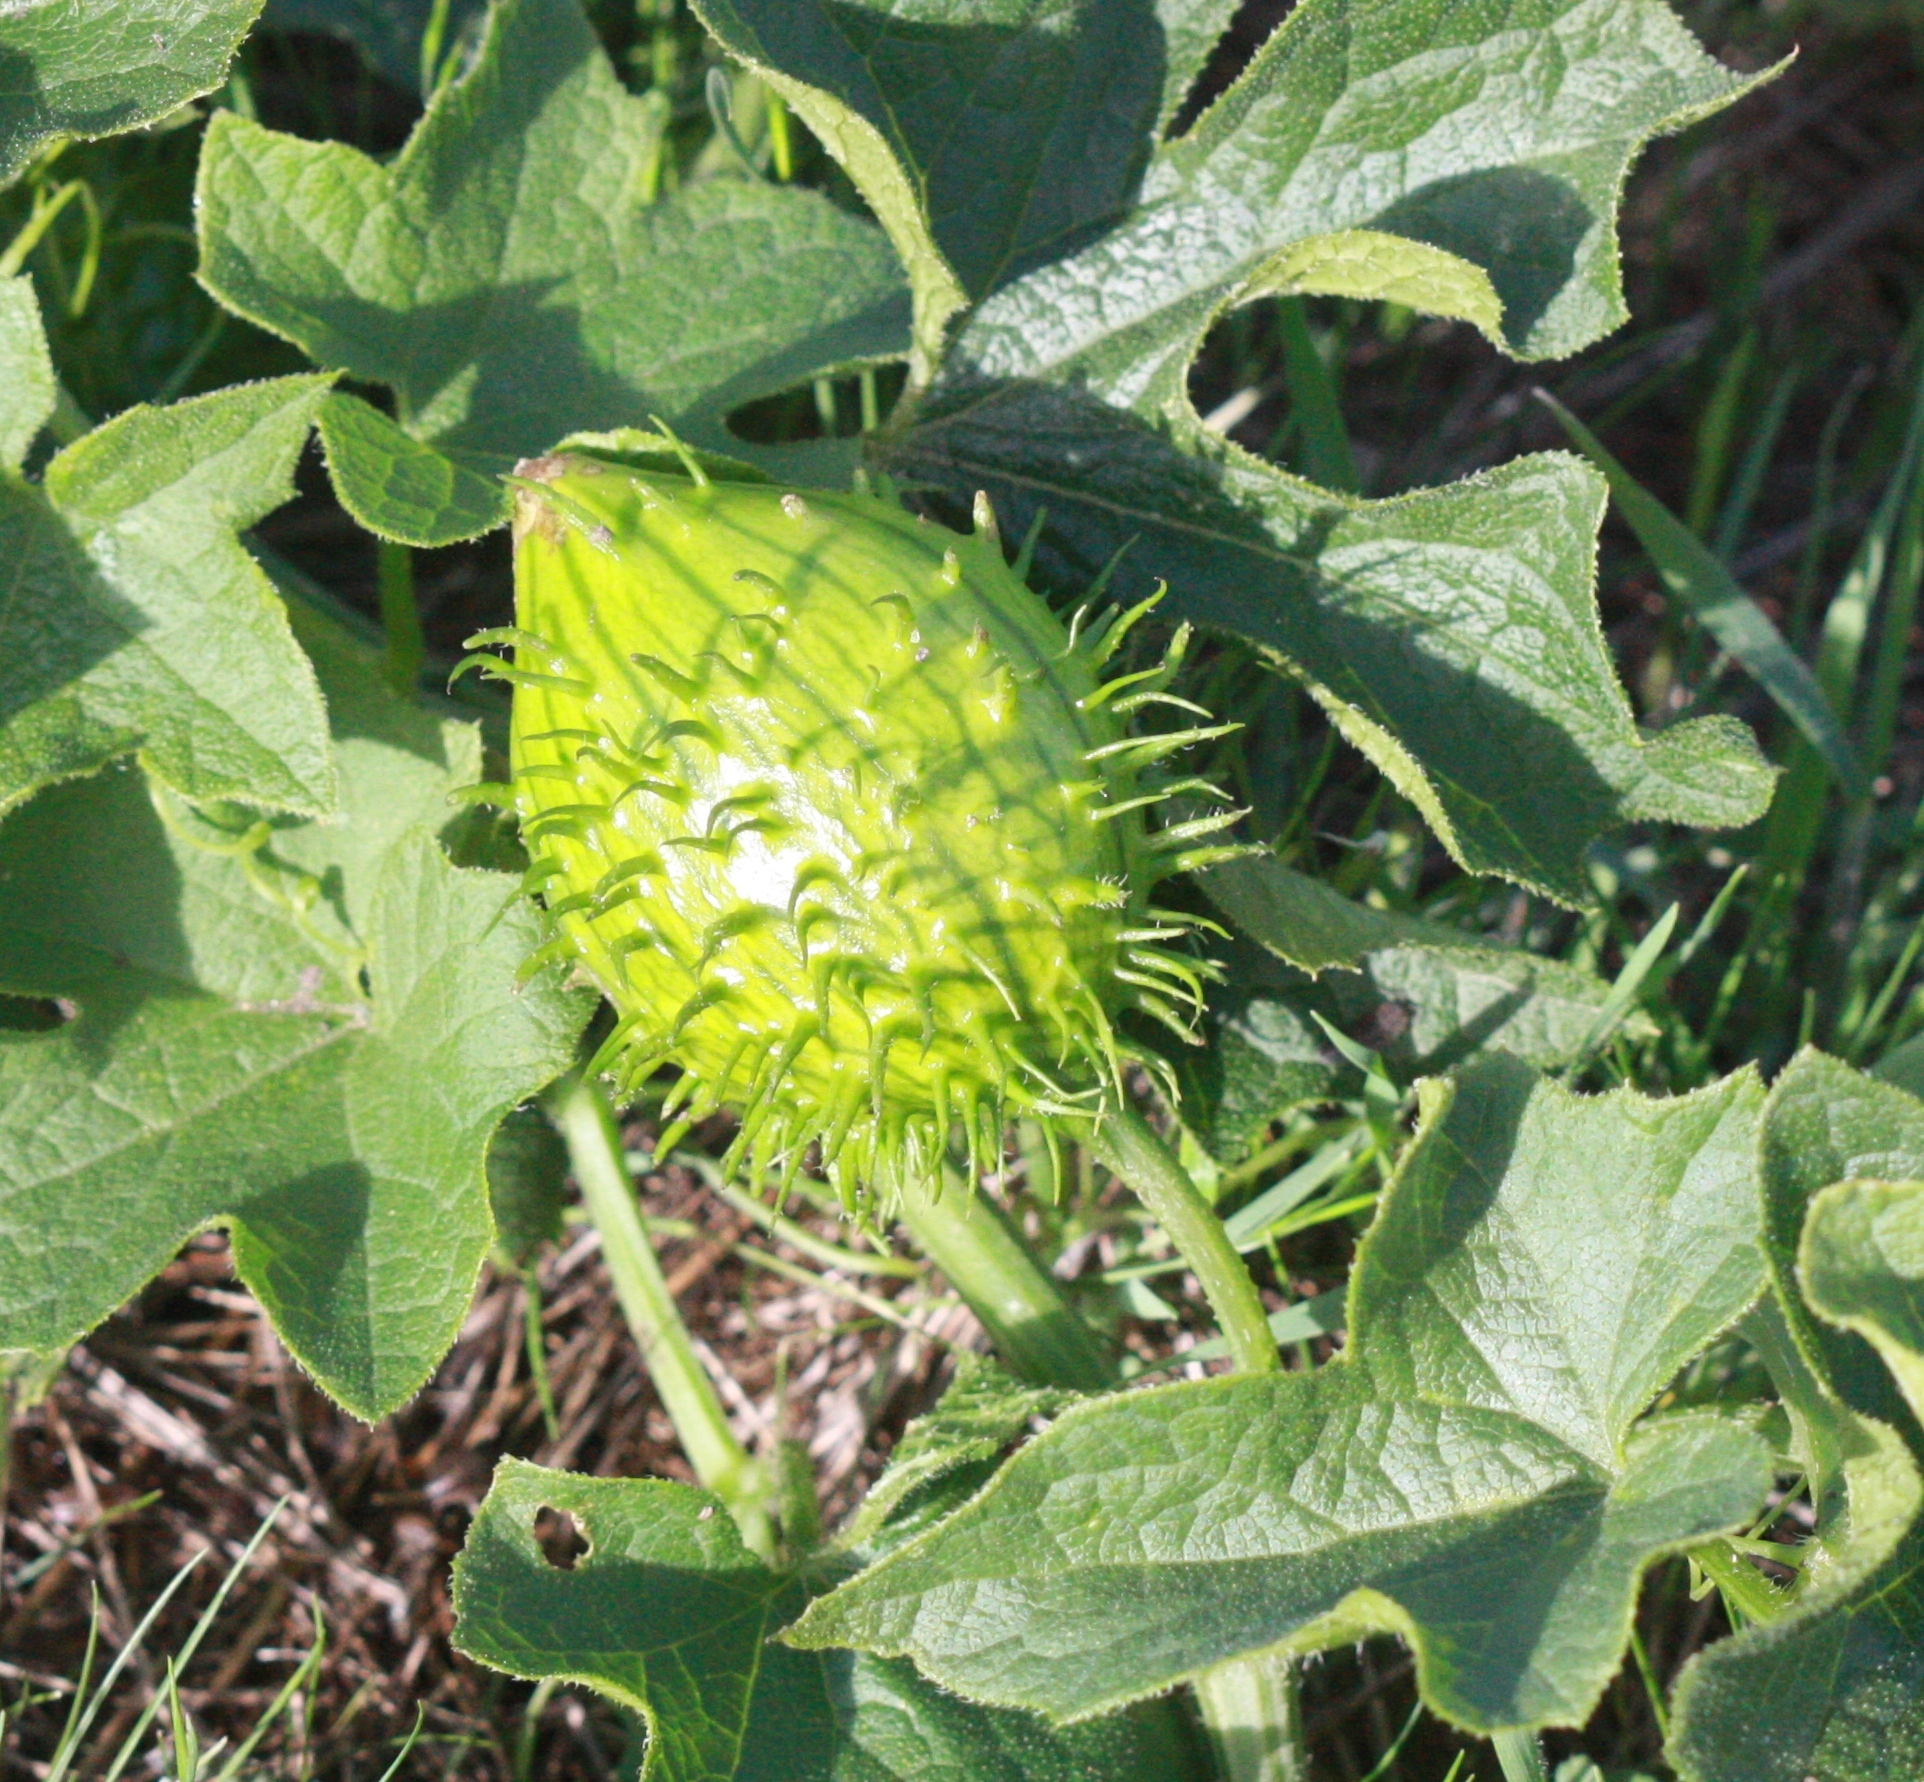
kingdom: Plantae
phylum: Tracheophyta
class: Magnoliopsida
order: Cucurbitales
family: Cucurbitaceae
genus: Marah
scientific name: Marah oregana
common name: Coastal manroot
